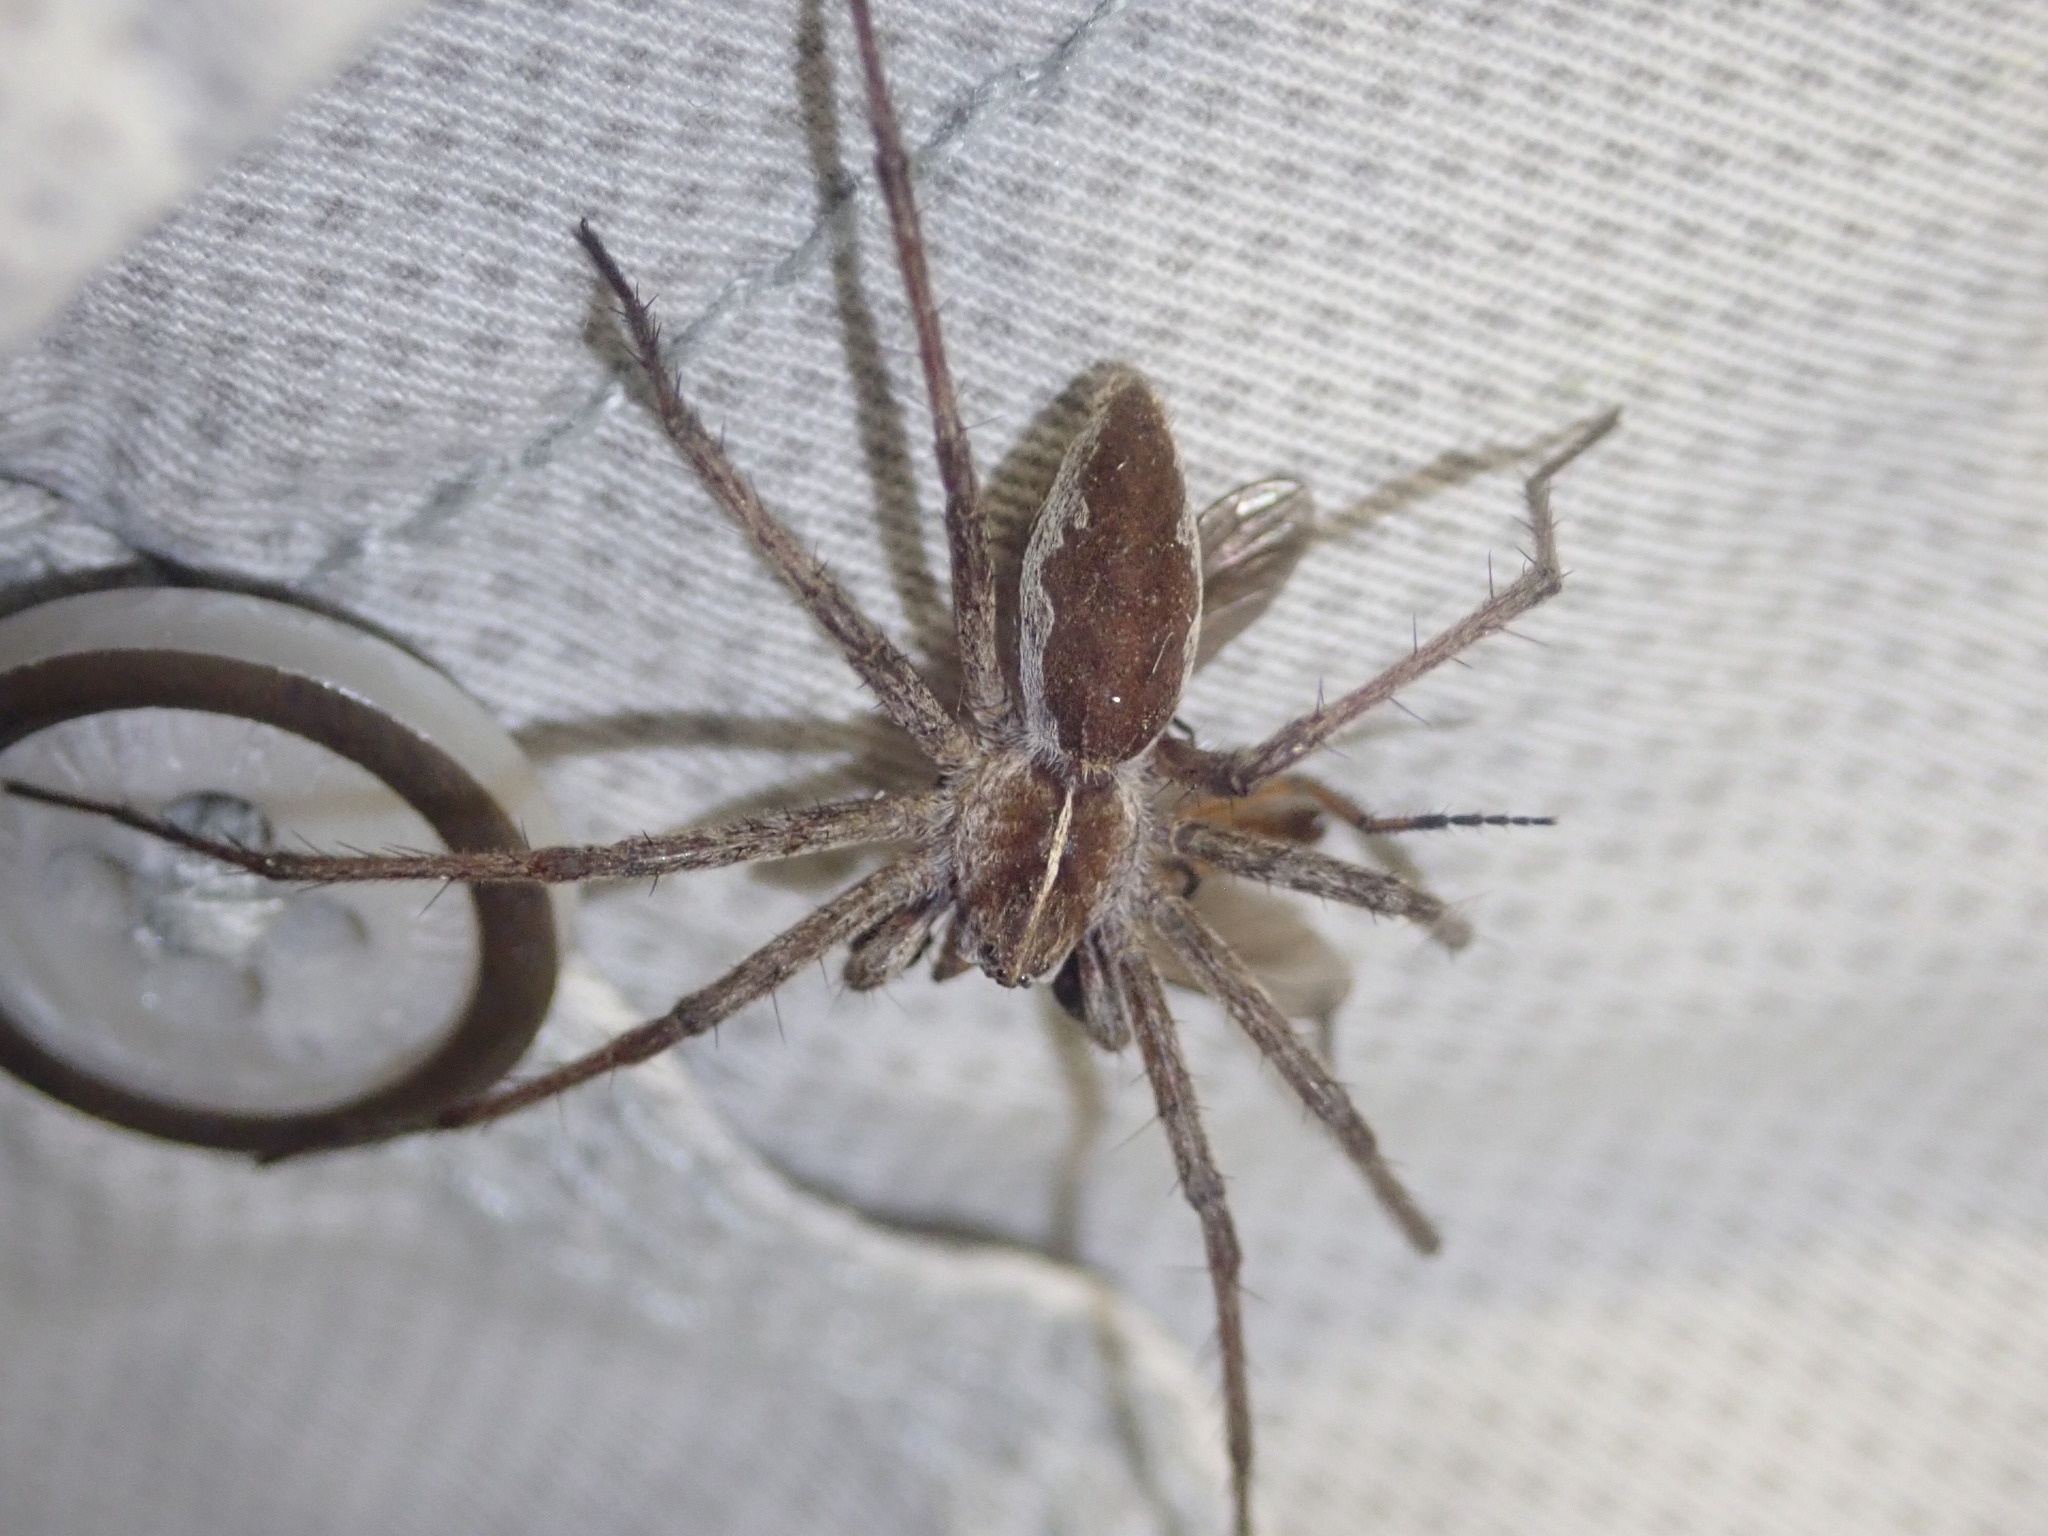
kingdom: Animalia
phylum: Arthropoda
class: Arachnida
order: Araneae
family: Pisauridae
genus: Pisaura
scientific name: Pisaura mirabilis
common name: Tent spider
